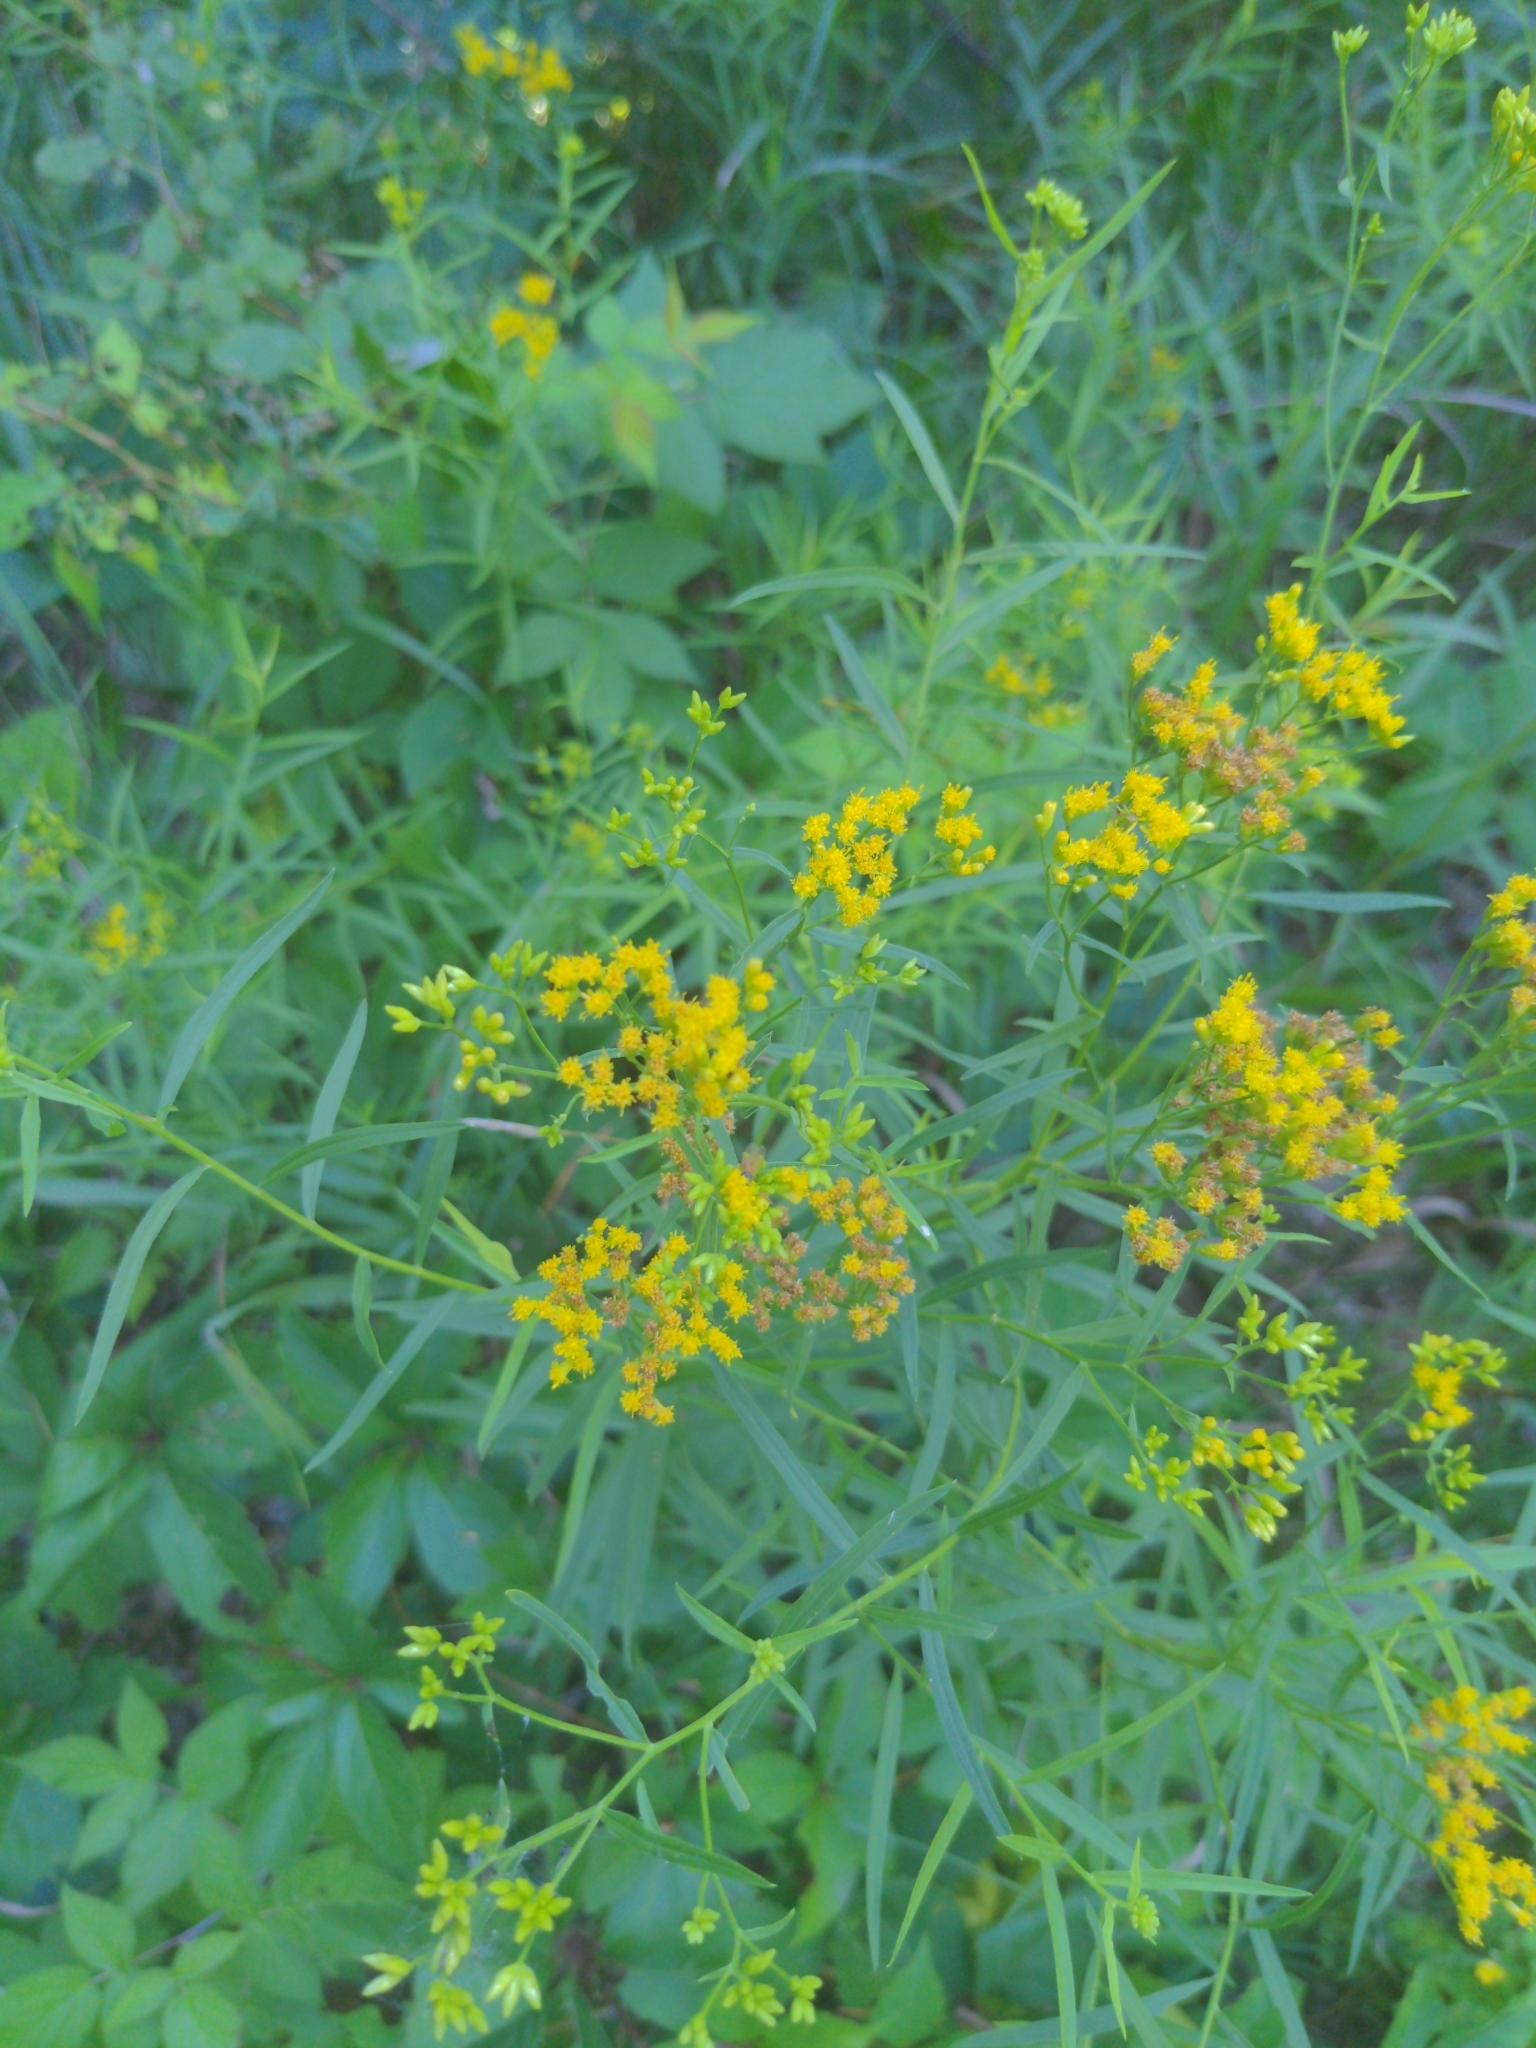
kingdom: Plantae
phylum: Tracheophyta
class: Magnoliopsida
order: Asterales
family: Asteraceae
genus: Euthamia
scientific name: Euthamia graminifolia
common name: Common goldentop
